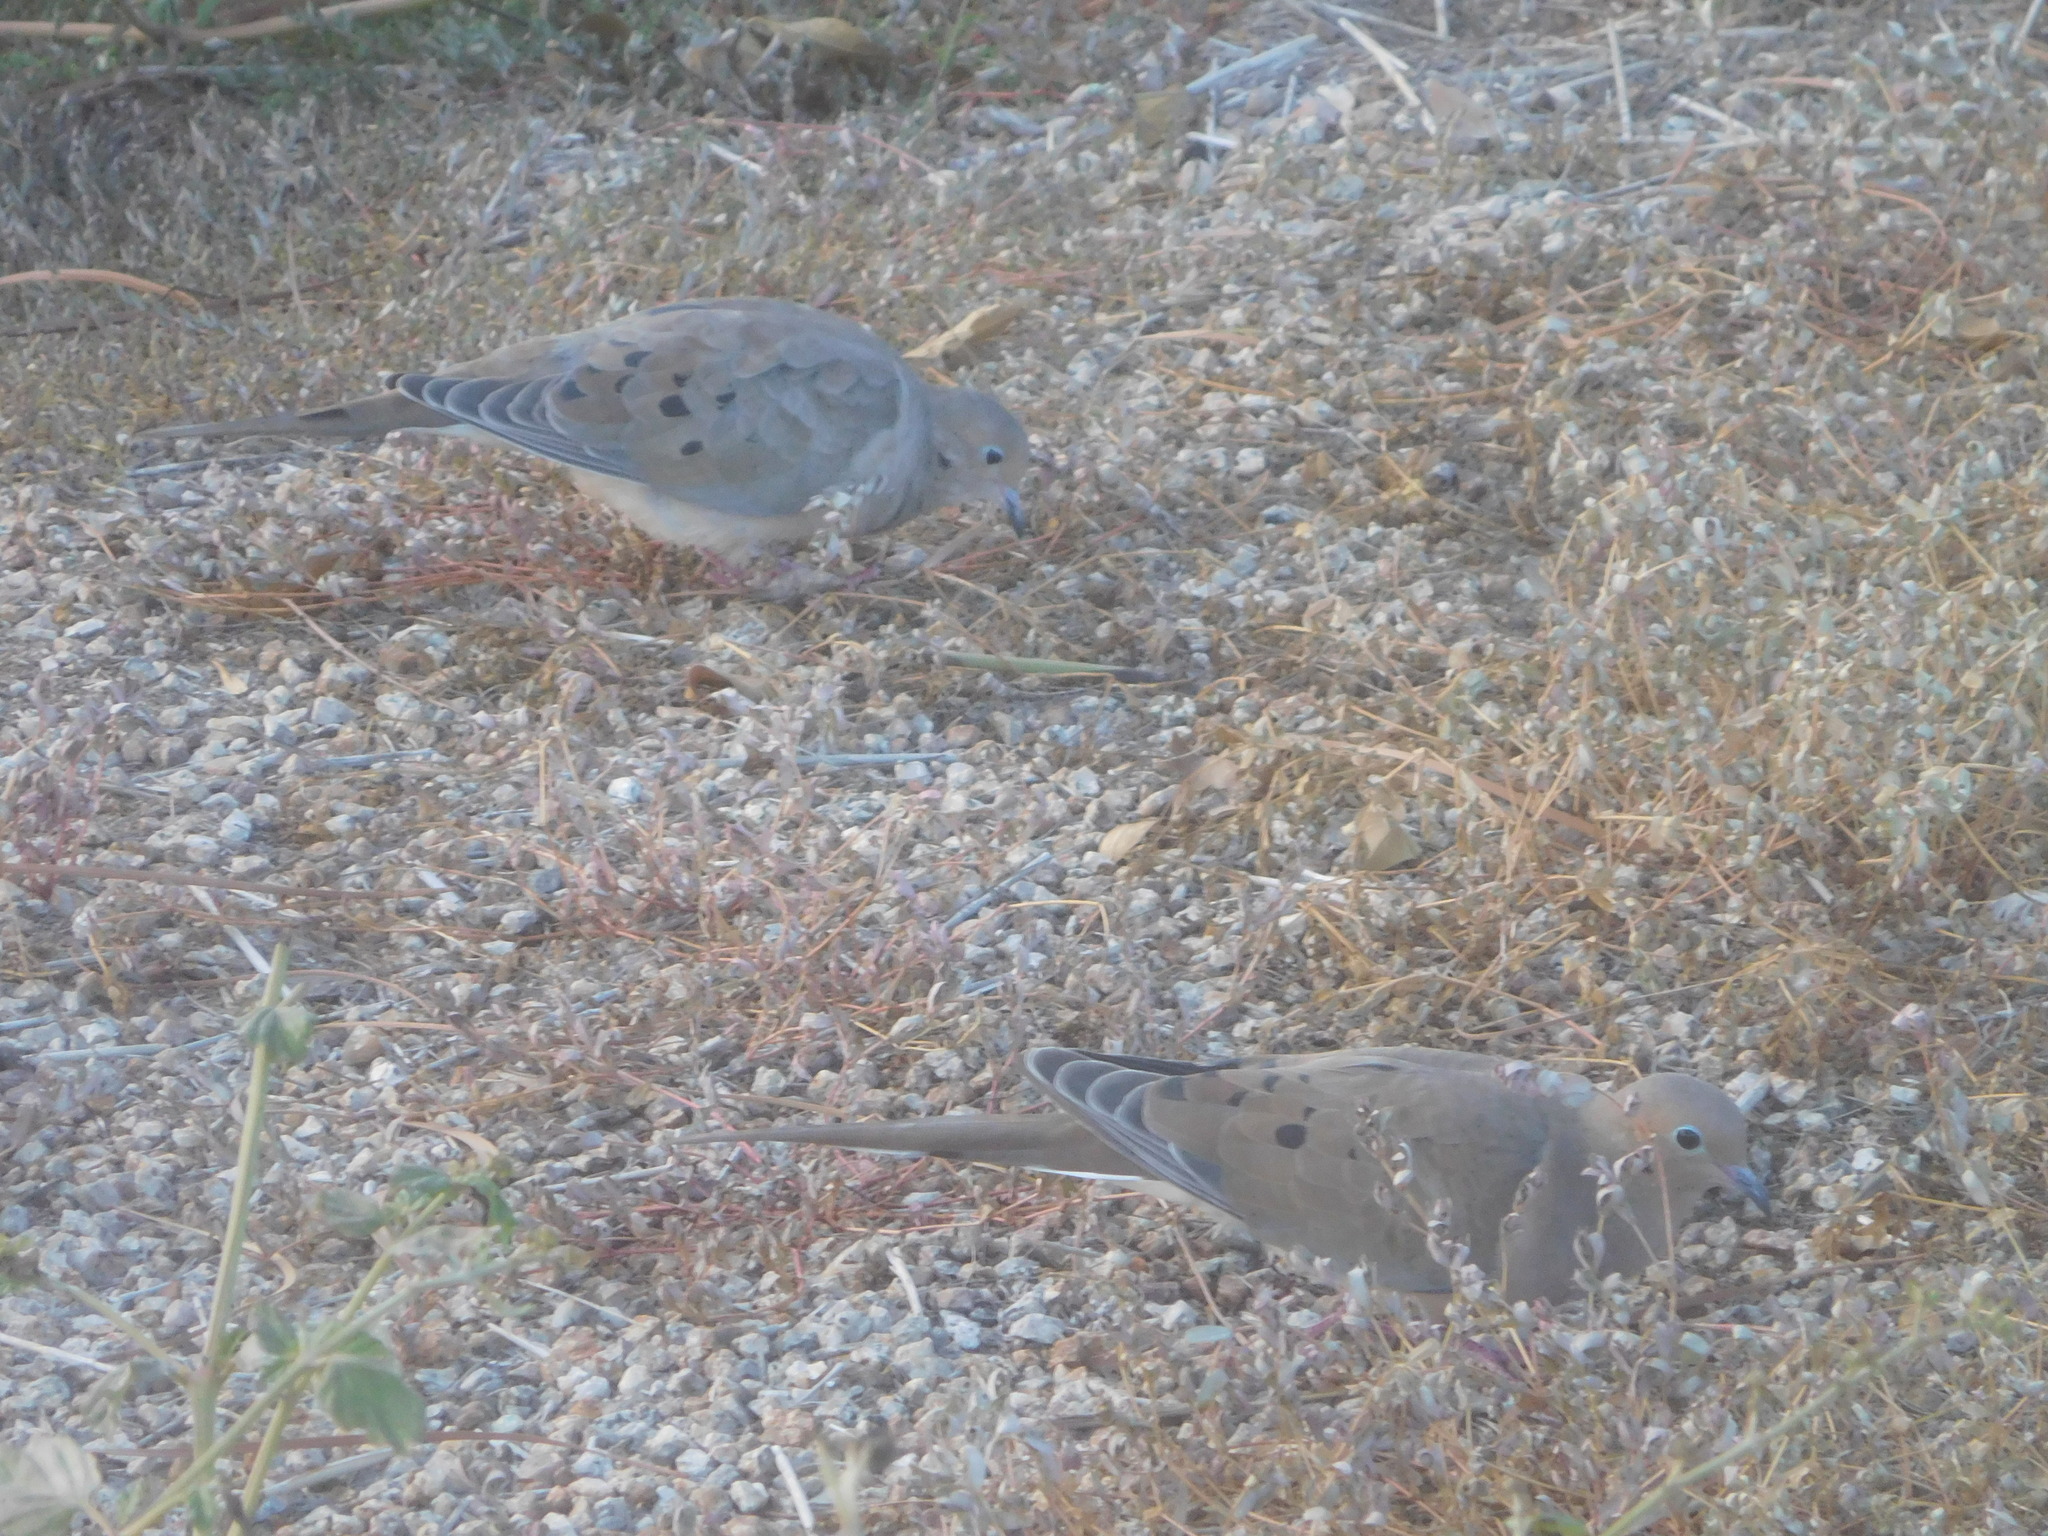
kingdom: Animalia
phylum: Chordata
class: Aves
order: Columbiformes
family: Columbidae
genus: Zenaida
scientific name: Zenaida macroura
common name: Mourning dove
